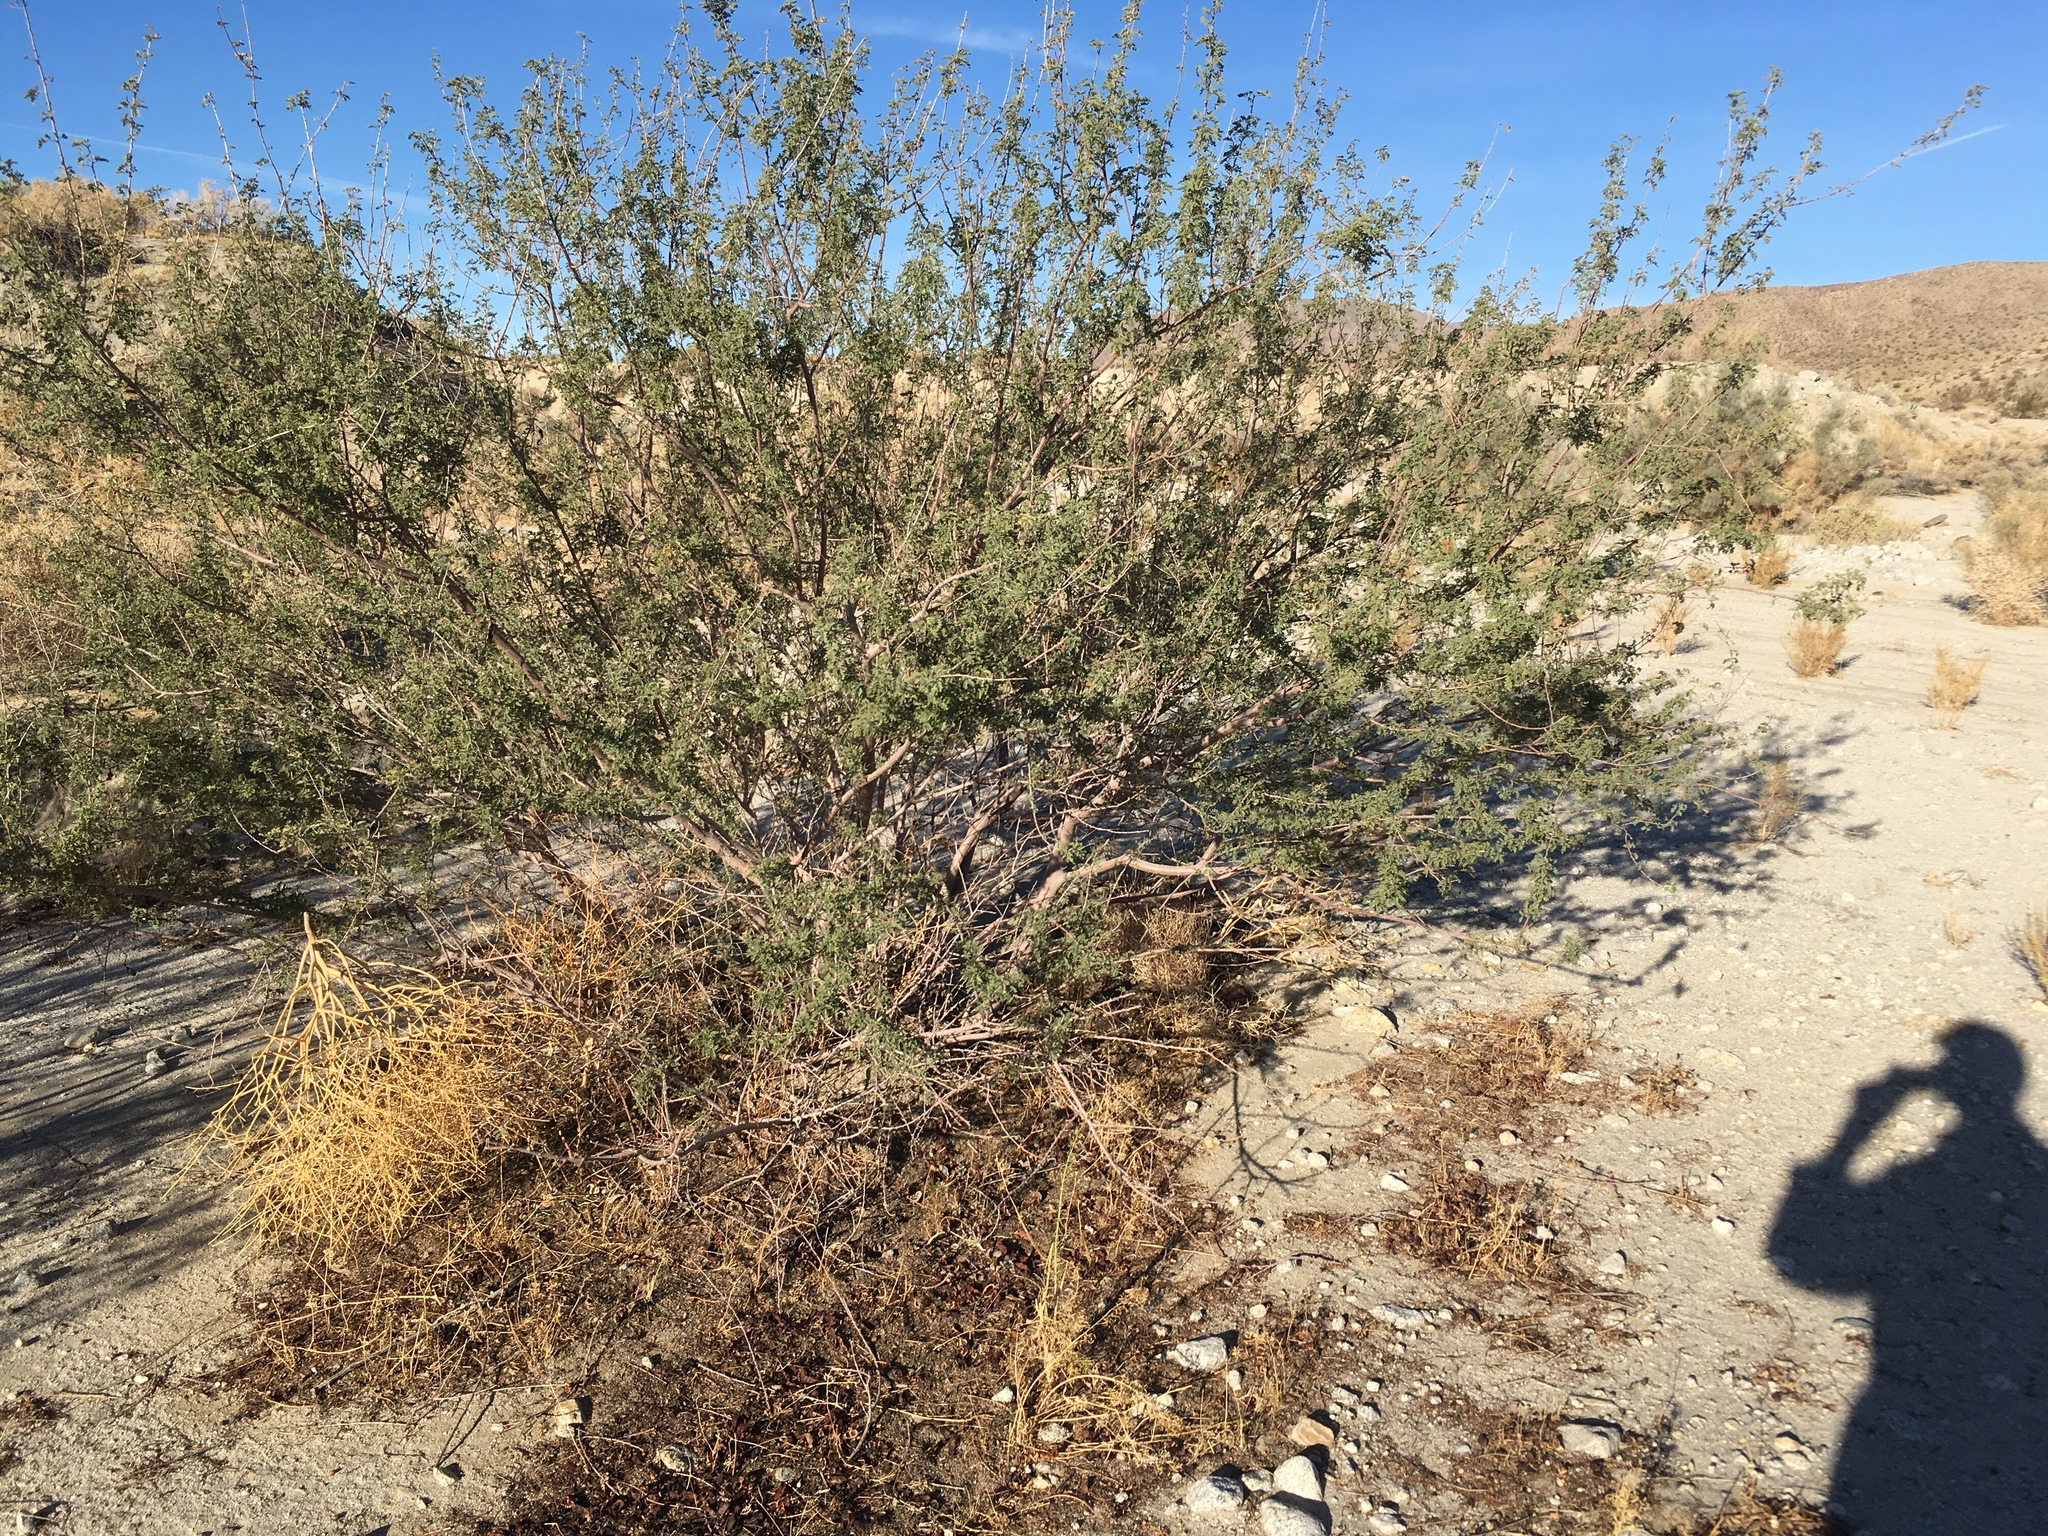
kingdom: Plantae
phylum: Tracheophyta
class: Magnoliopsida
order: Fabales
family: Fabaceae
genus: Senegalia
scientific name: Senegalia greggii
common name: Texas-mimosa
